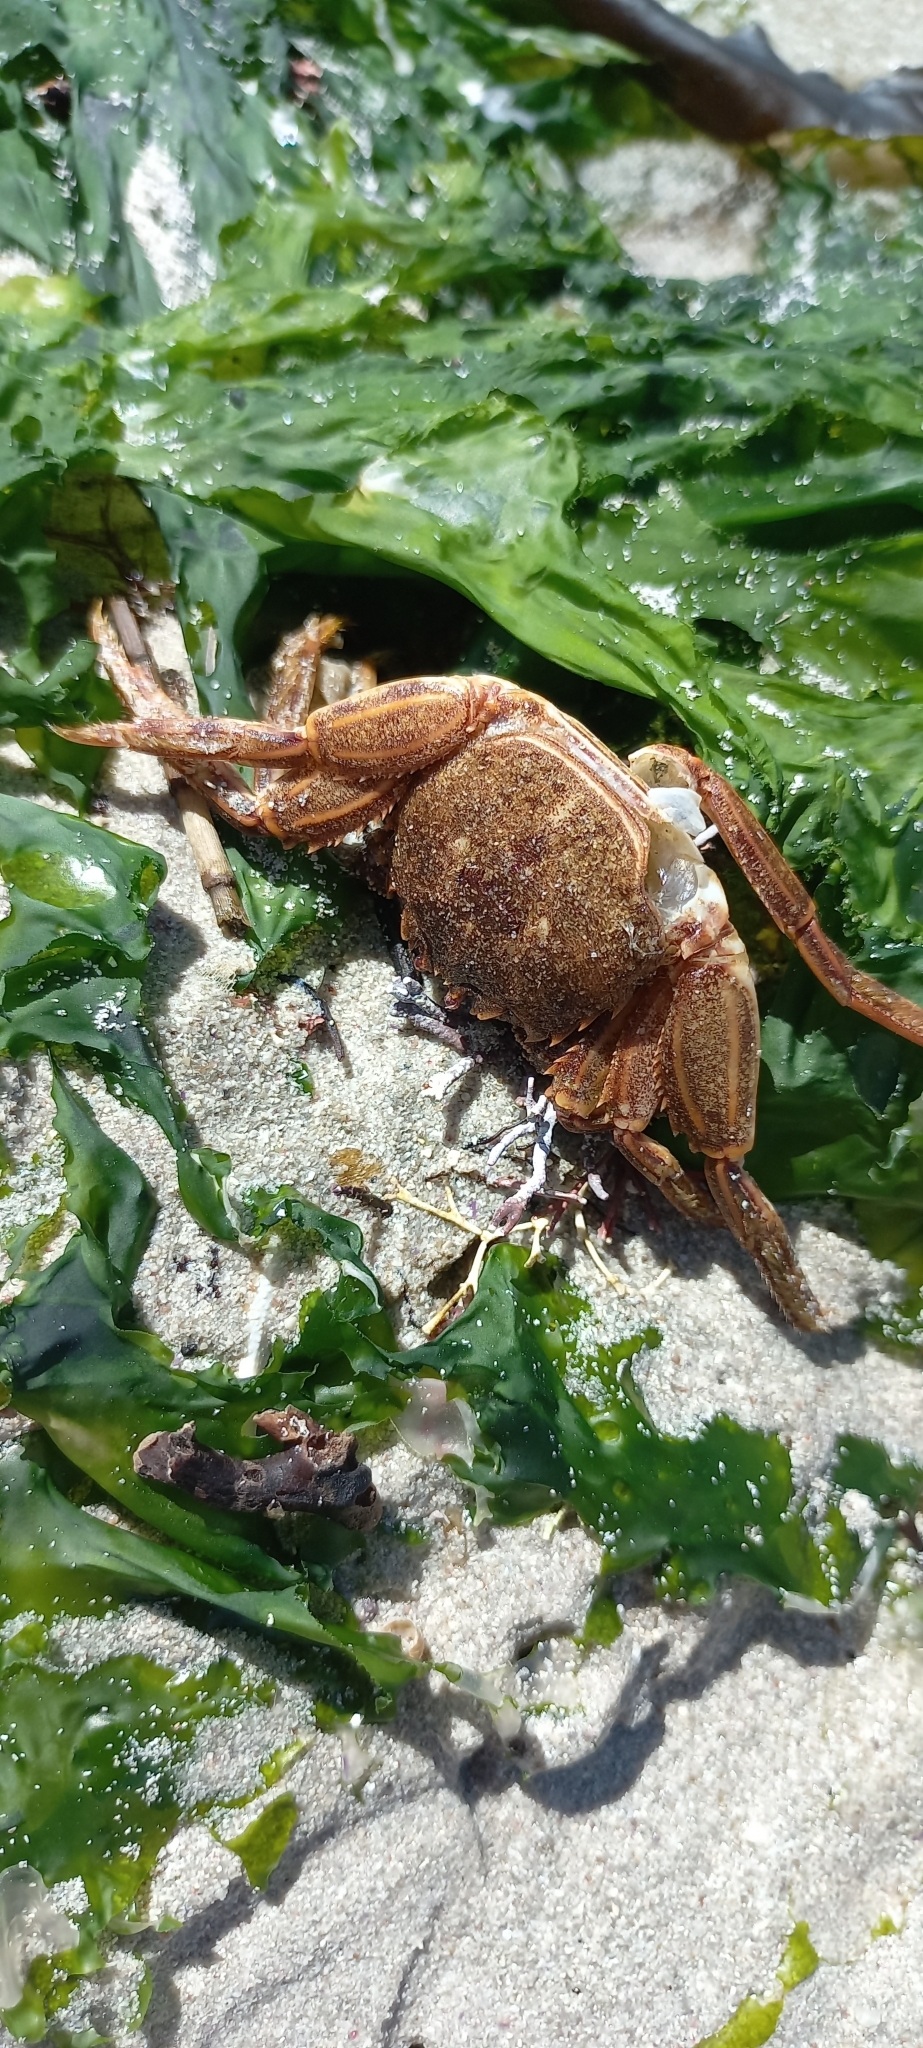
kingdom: Animalia
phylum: Arthropoda
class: Malacostraca
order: Decapoda
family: Plagusiidae
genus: Guinusia
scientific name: Guinusia chabrus
